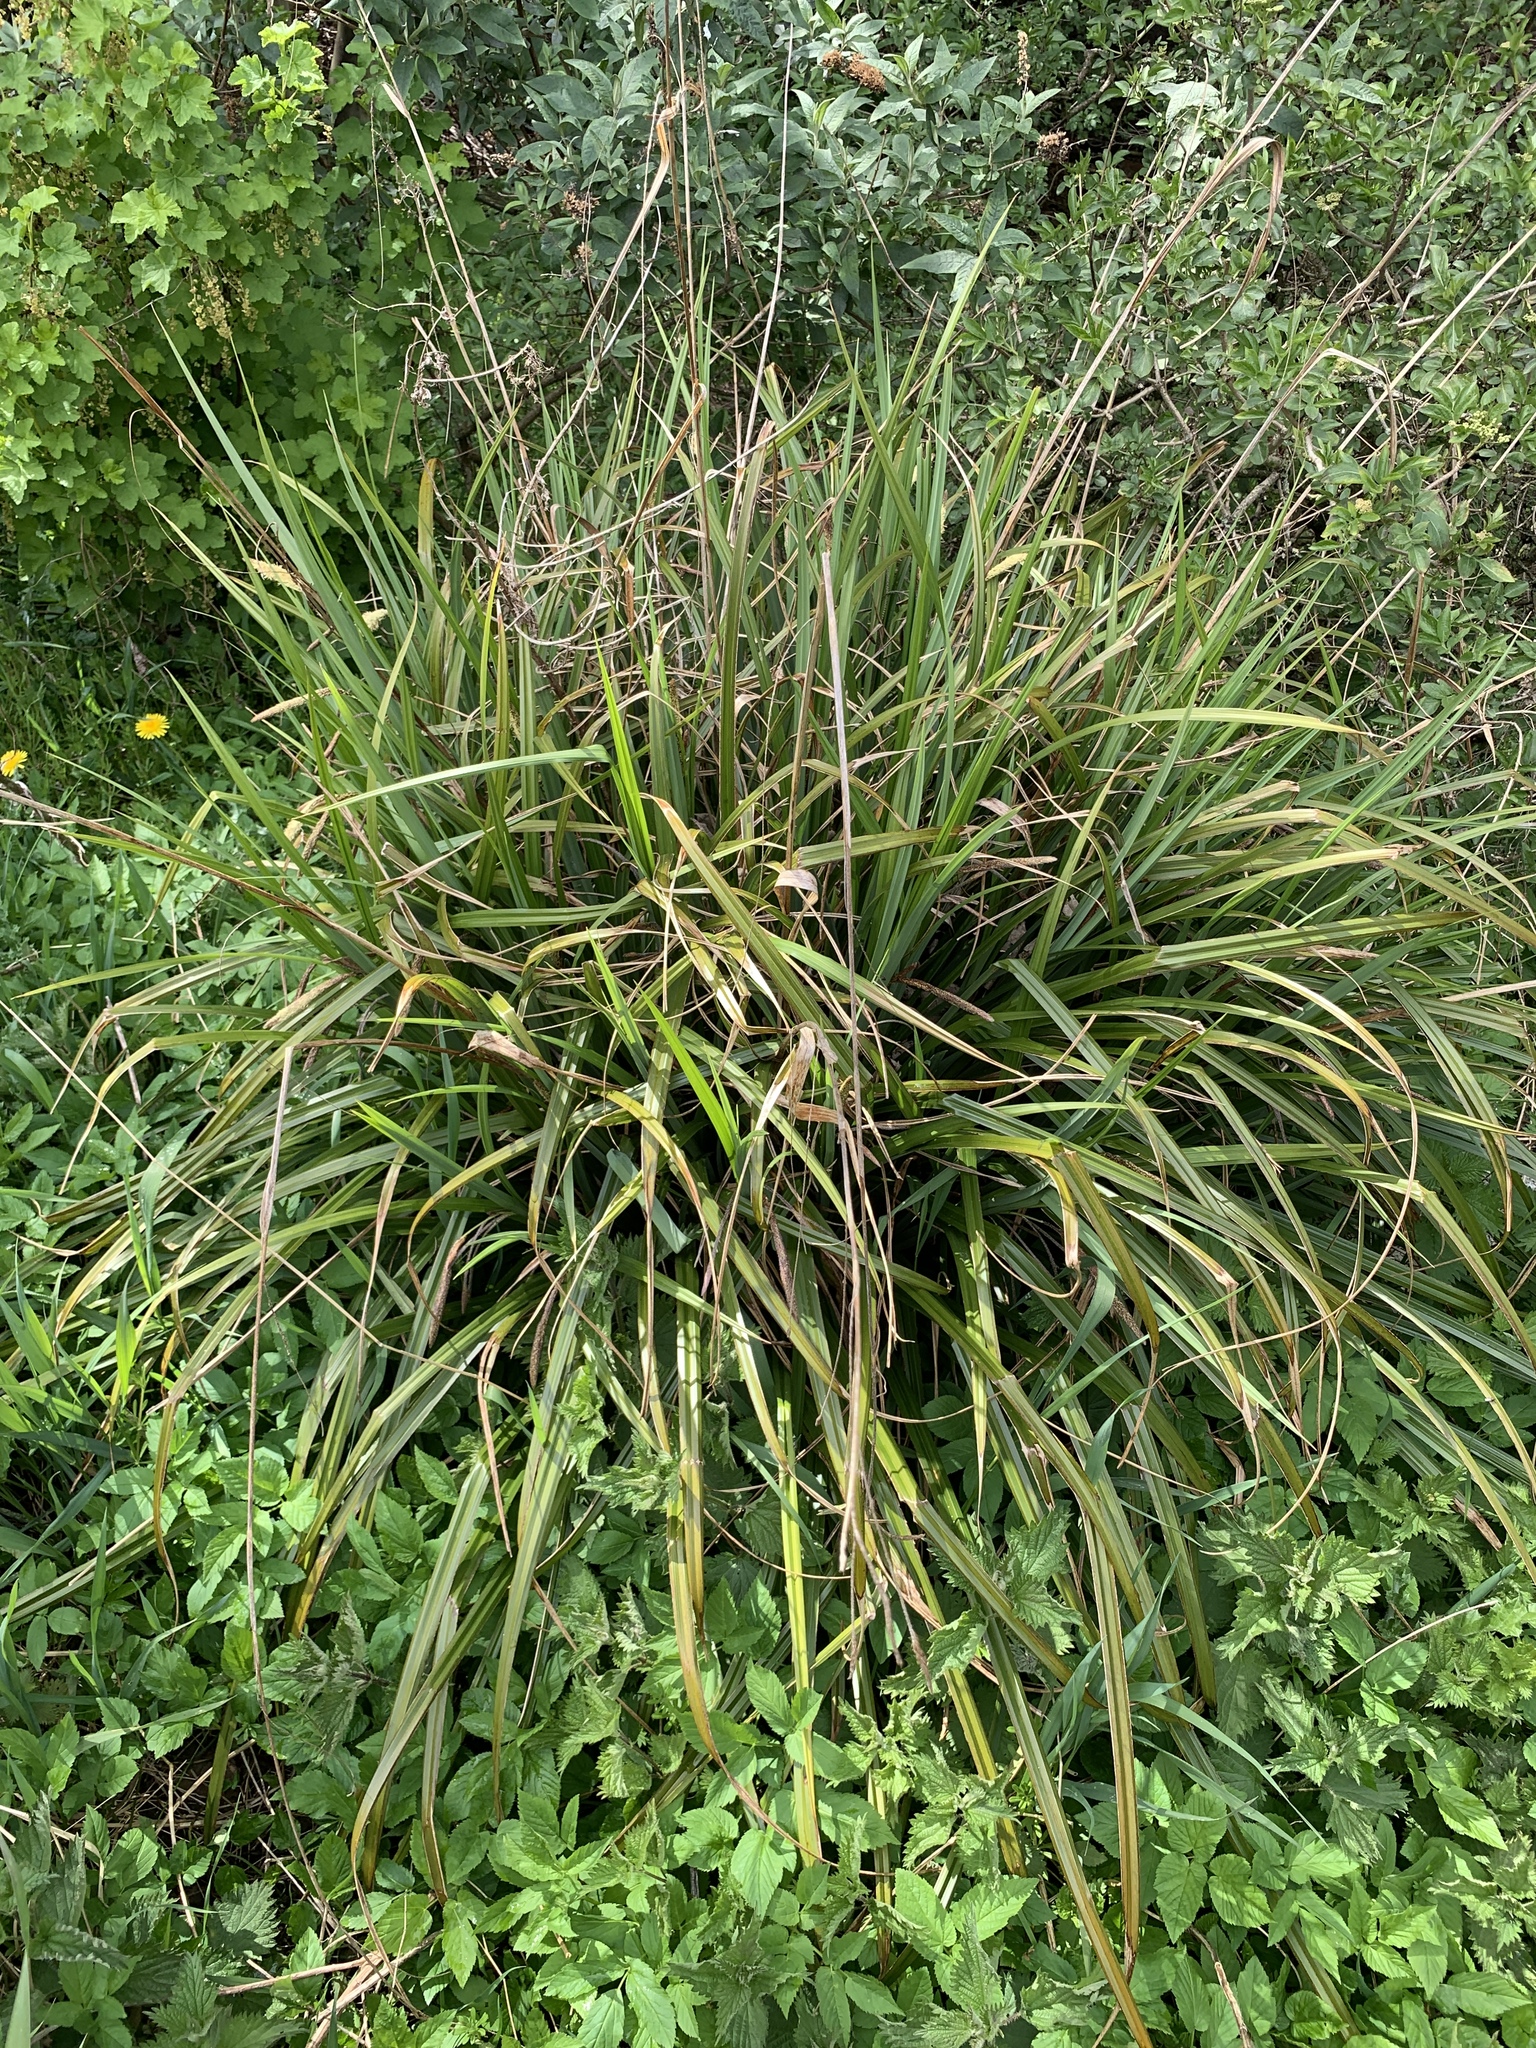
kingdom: Plantae
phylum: Tracheophyta
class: Liliopsida
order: Poales
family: Cyperaceae
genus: Carex
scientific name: Carex pendula
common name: Pendulous sedge
